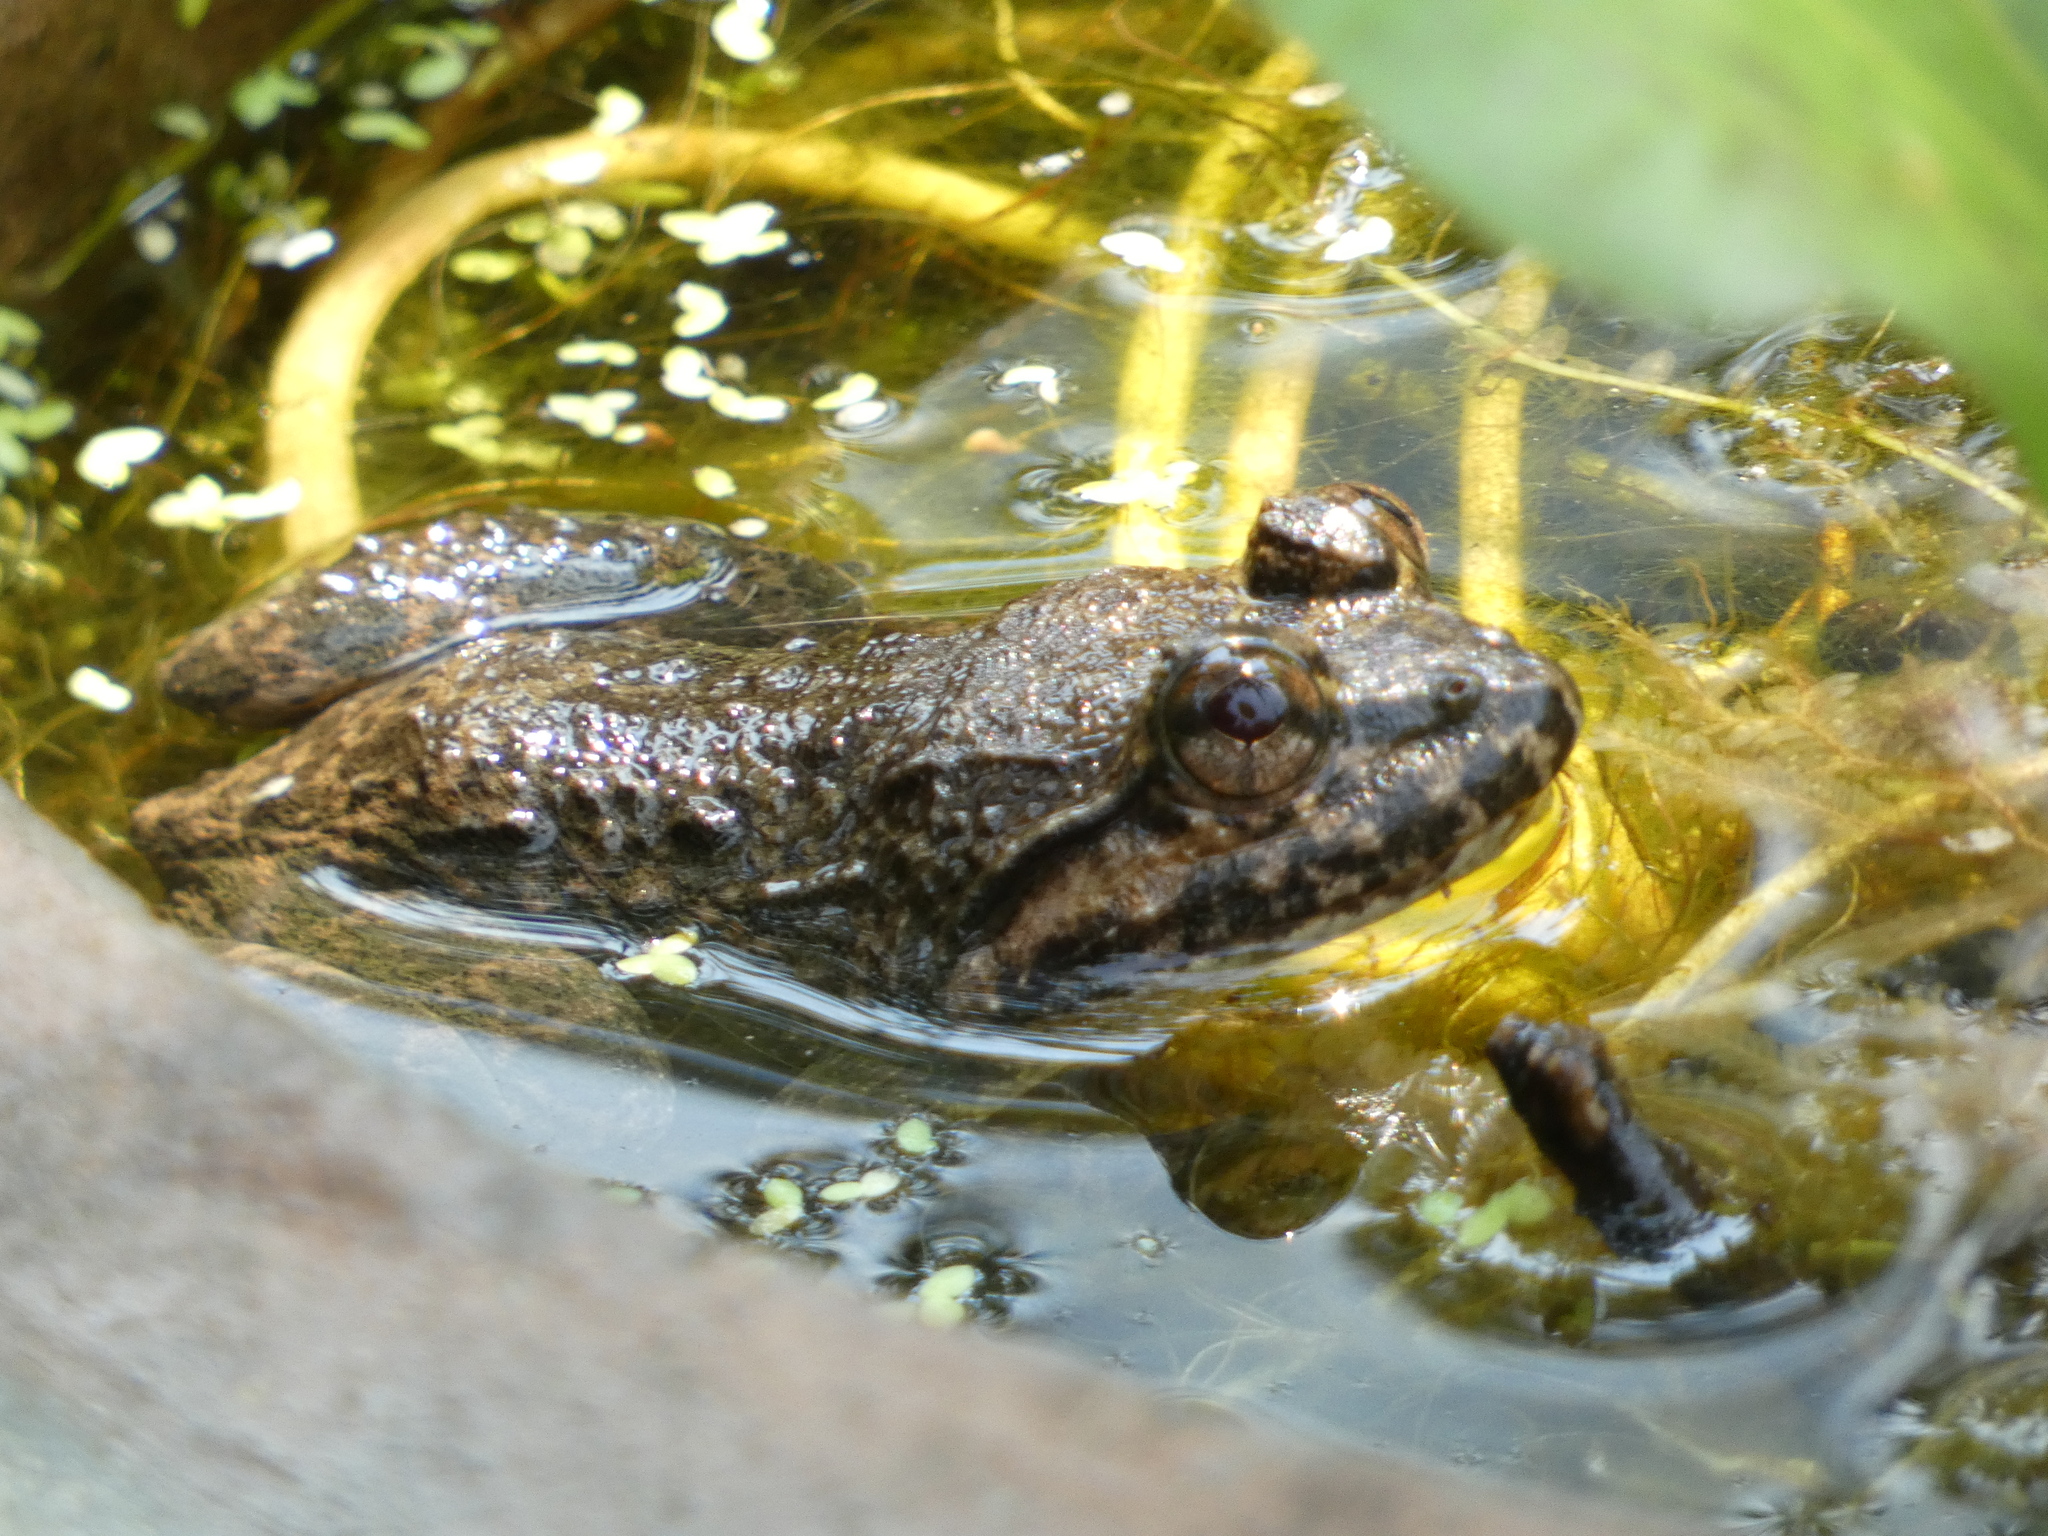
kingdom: Animalia
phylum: Chordata
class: Amphibia
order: Anura
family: Dicroglossidae
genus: Limnonectes
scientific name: Limnonectes taylori
